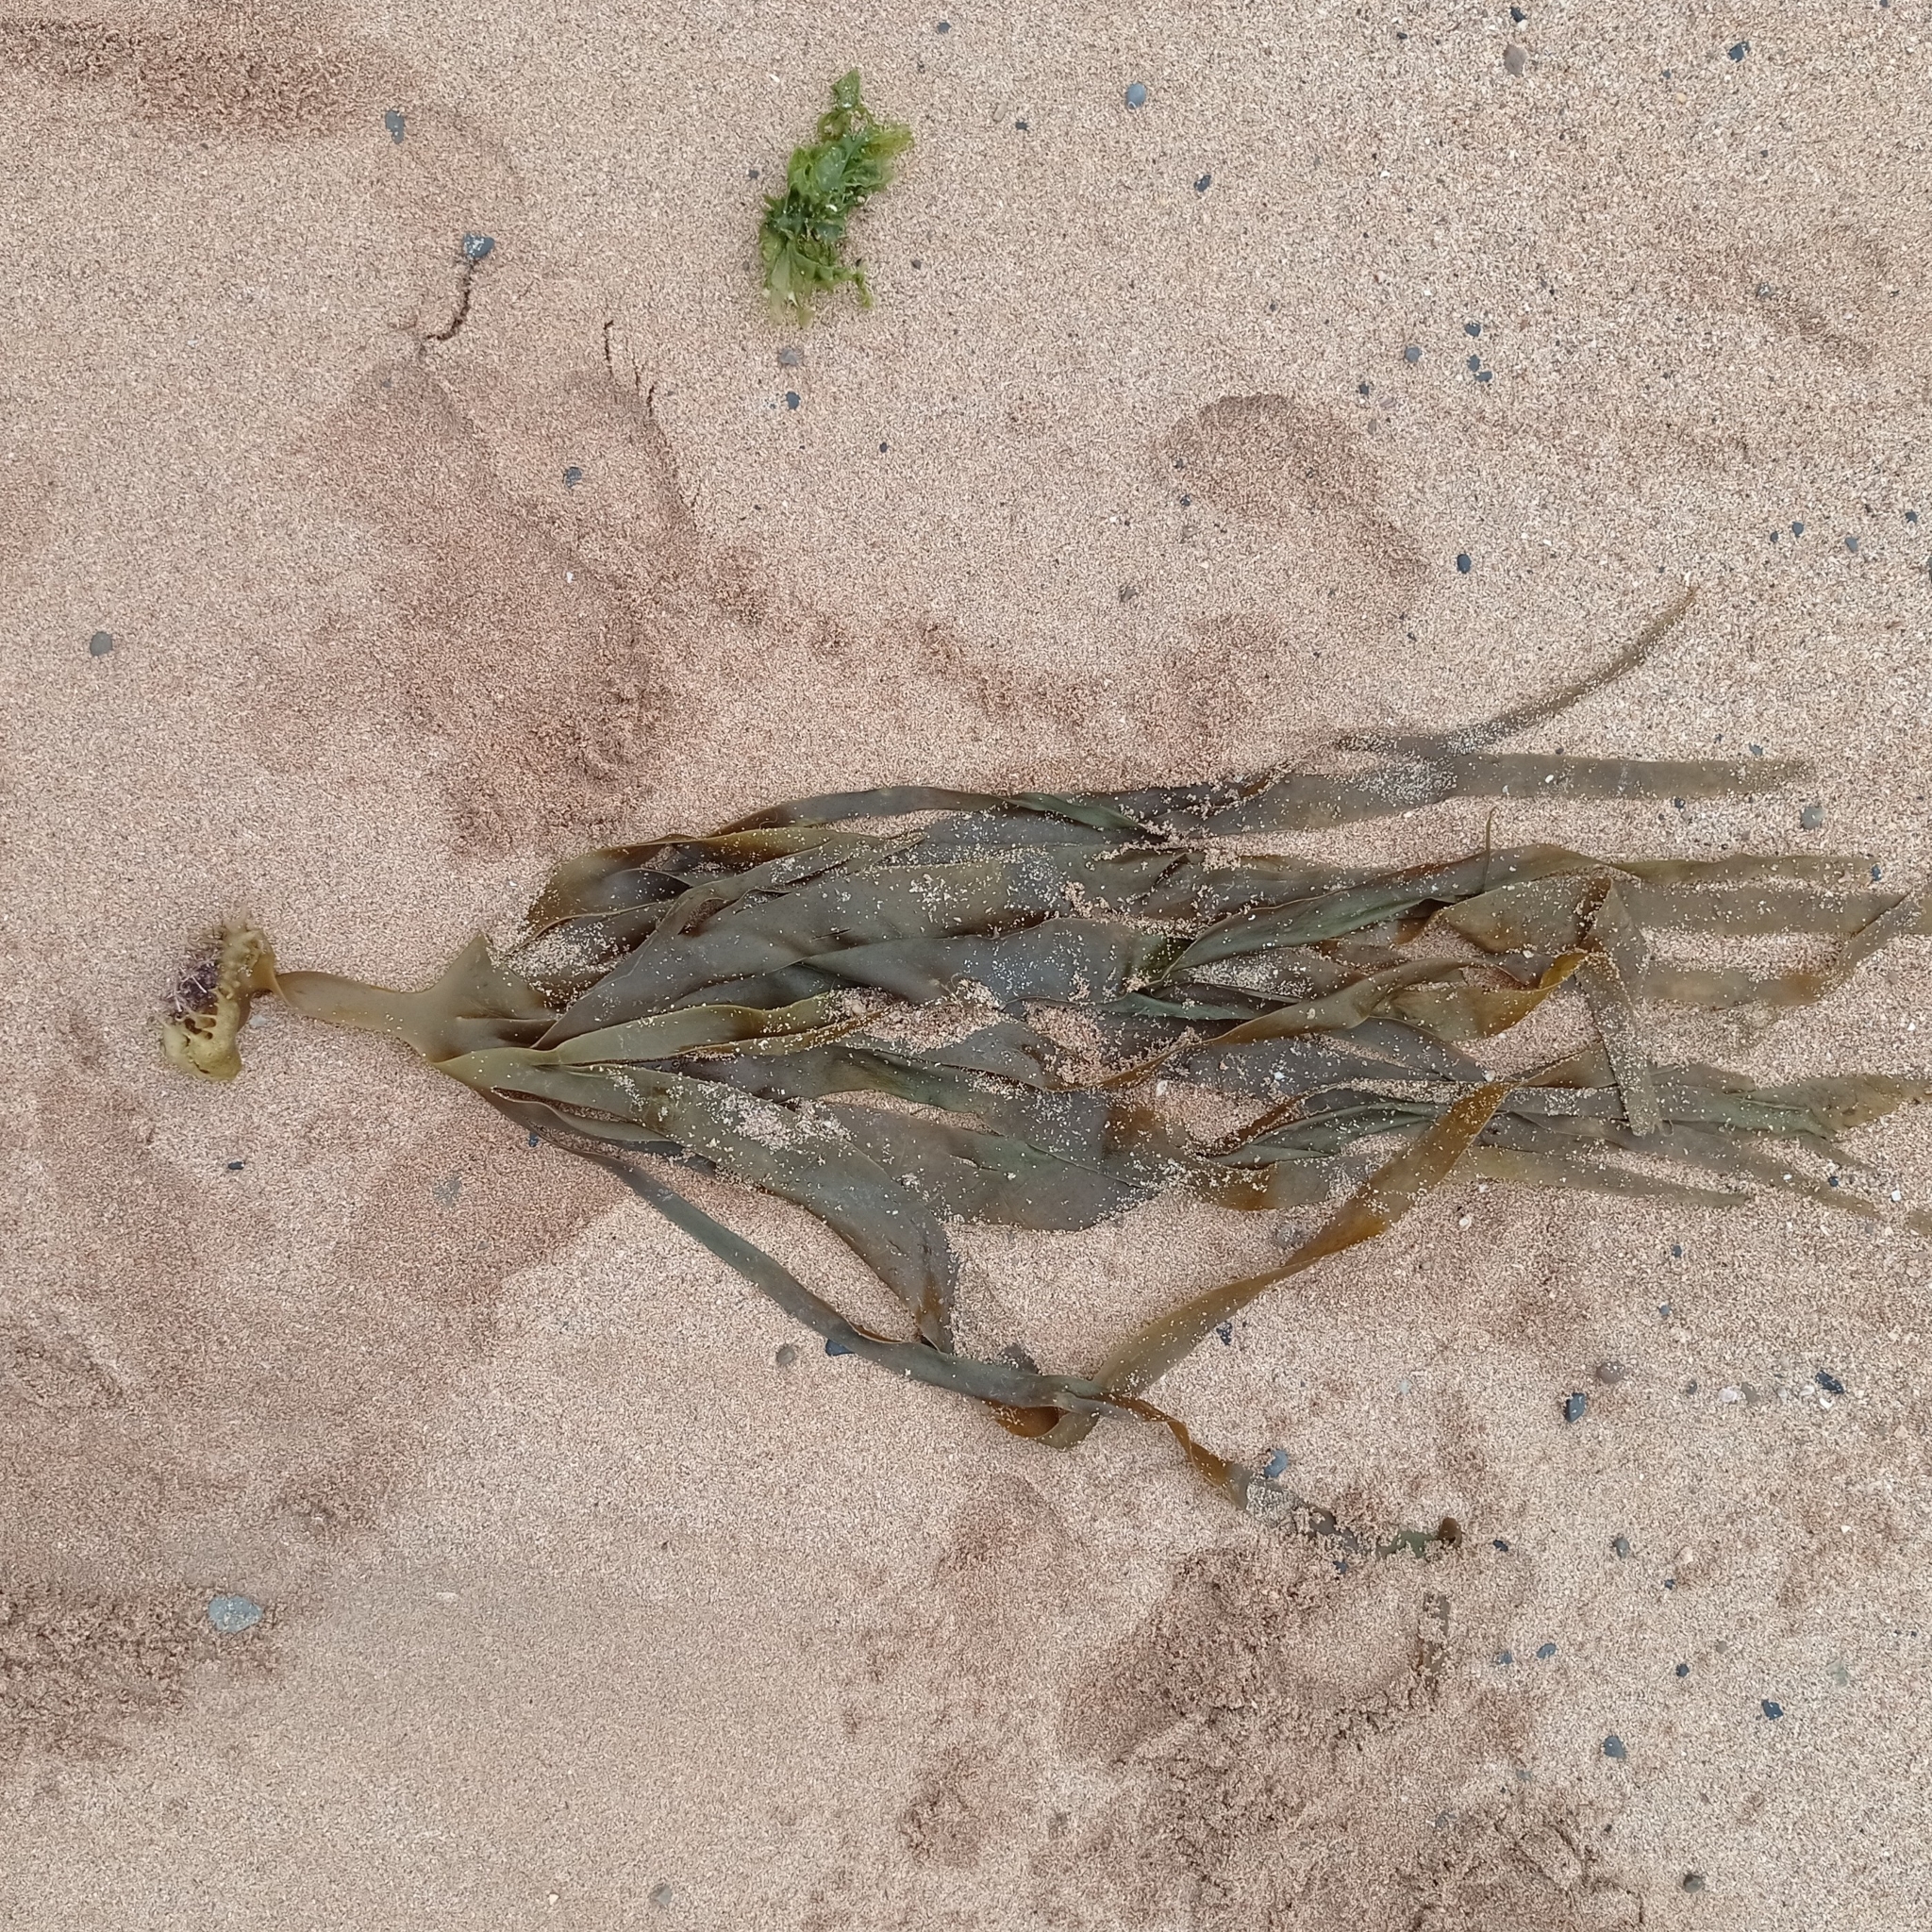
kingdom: Chromista
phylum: Ochrophyta
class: Phaeophyceae
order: Tilopteridales
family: Phyllariaceae
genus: Saccorhiza
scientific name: Saccorhiza polyschides
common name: Furbelows
